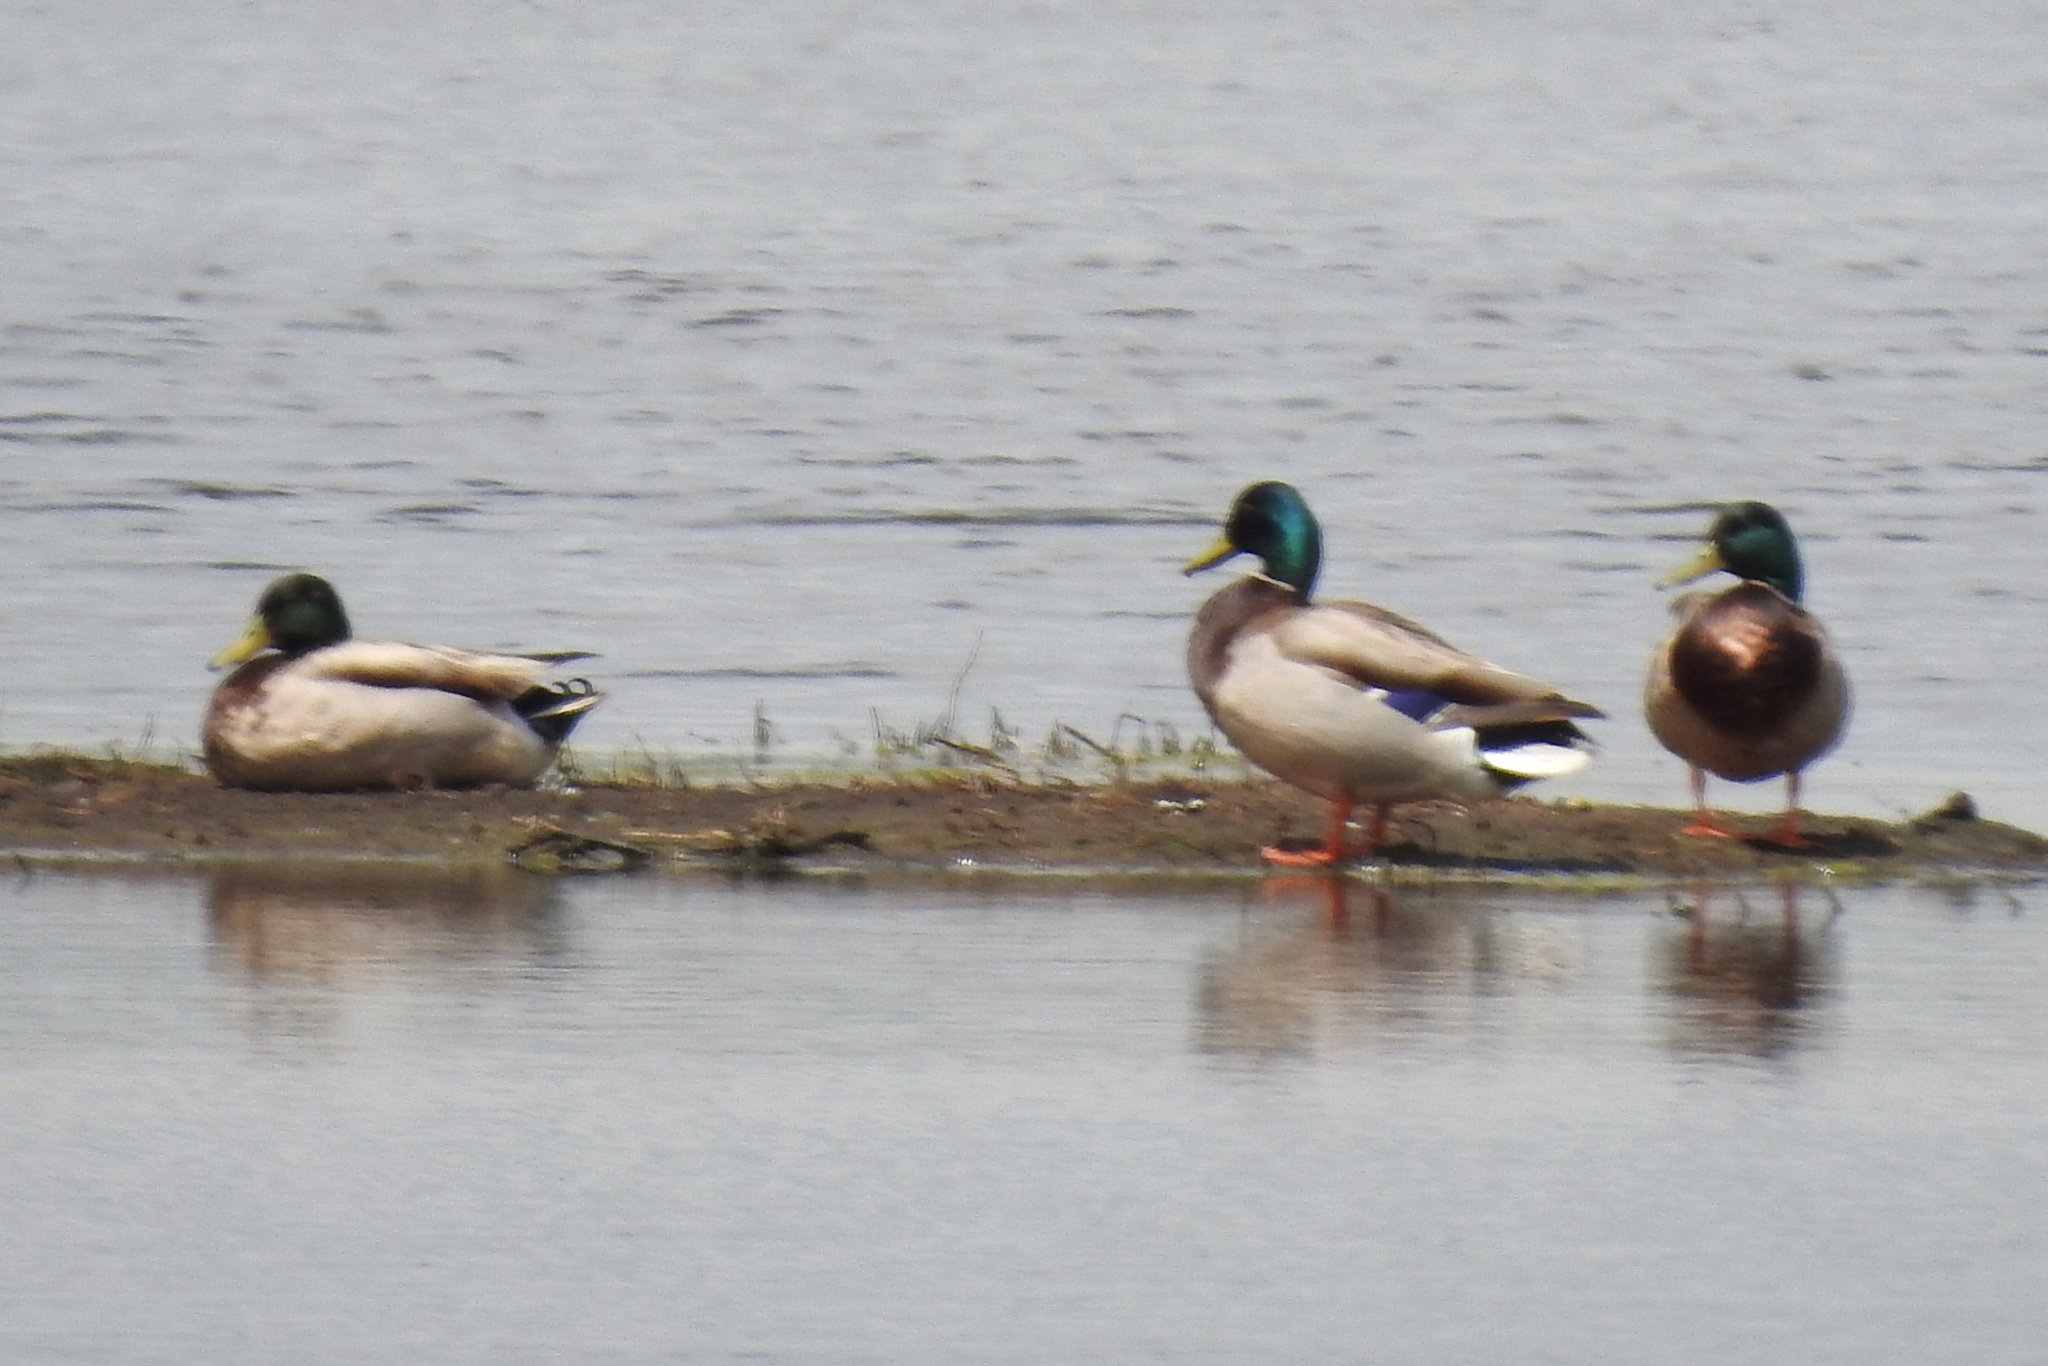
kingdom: Animalia
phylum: Chordata
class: Aves
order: Anseriformes
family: Anatidae
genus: Anas
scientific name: Anas platyrhynchos
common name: Mallard
